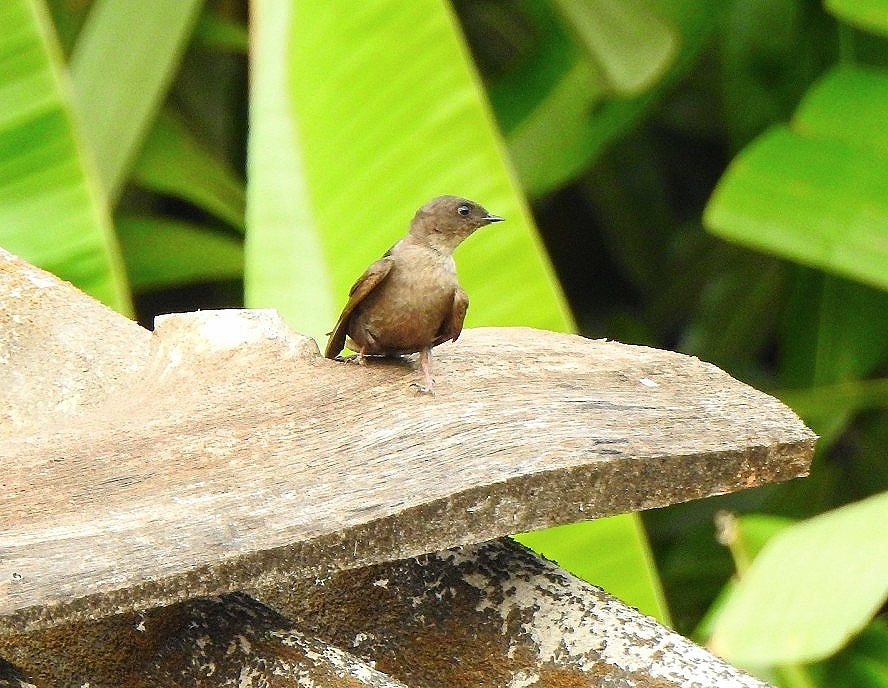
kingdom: Animalia
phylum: Chordata
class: Aves
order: Passeriformes
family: Hirundinidae
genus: Ptyonoprogne
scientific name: Ptyonoprogne concolor
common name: Dusky crag-martin
